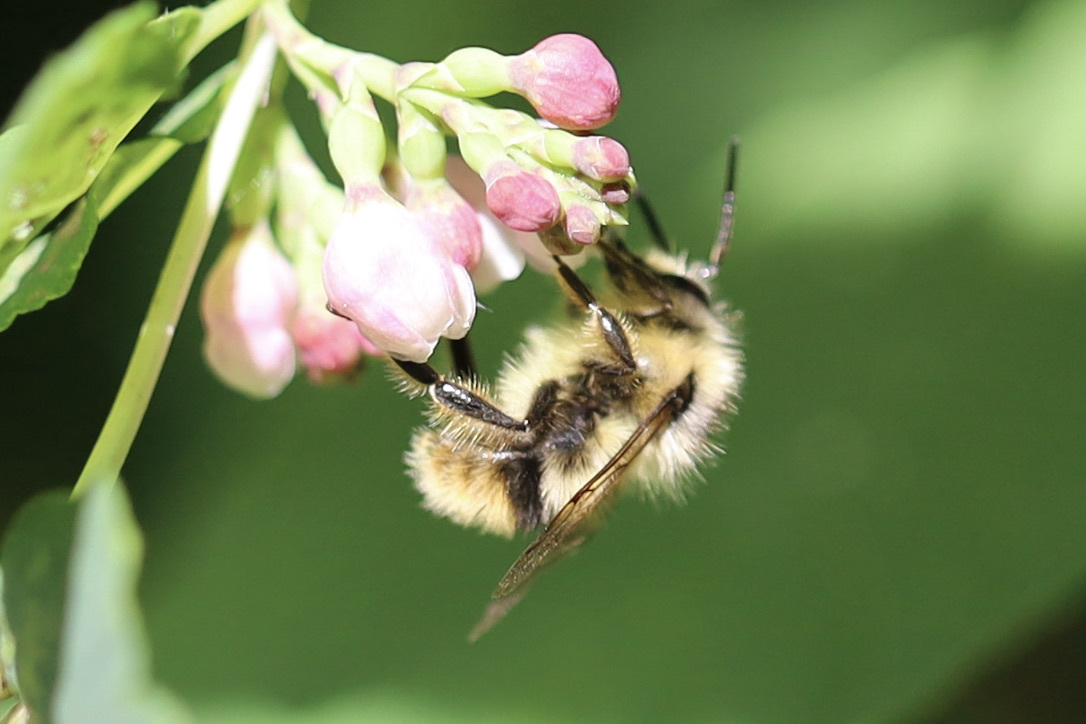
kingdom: Animalia
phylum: Arthropoda
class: Insecta
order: Hymenoptera
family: Apidae
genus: Bombus
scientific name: Bombus mixtus
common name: Fuzzy-horned bumble bee
